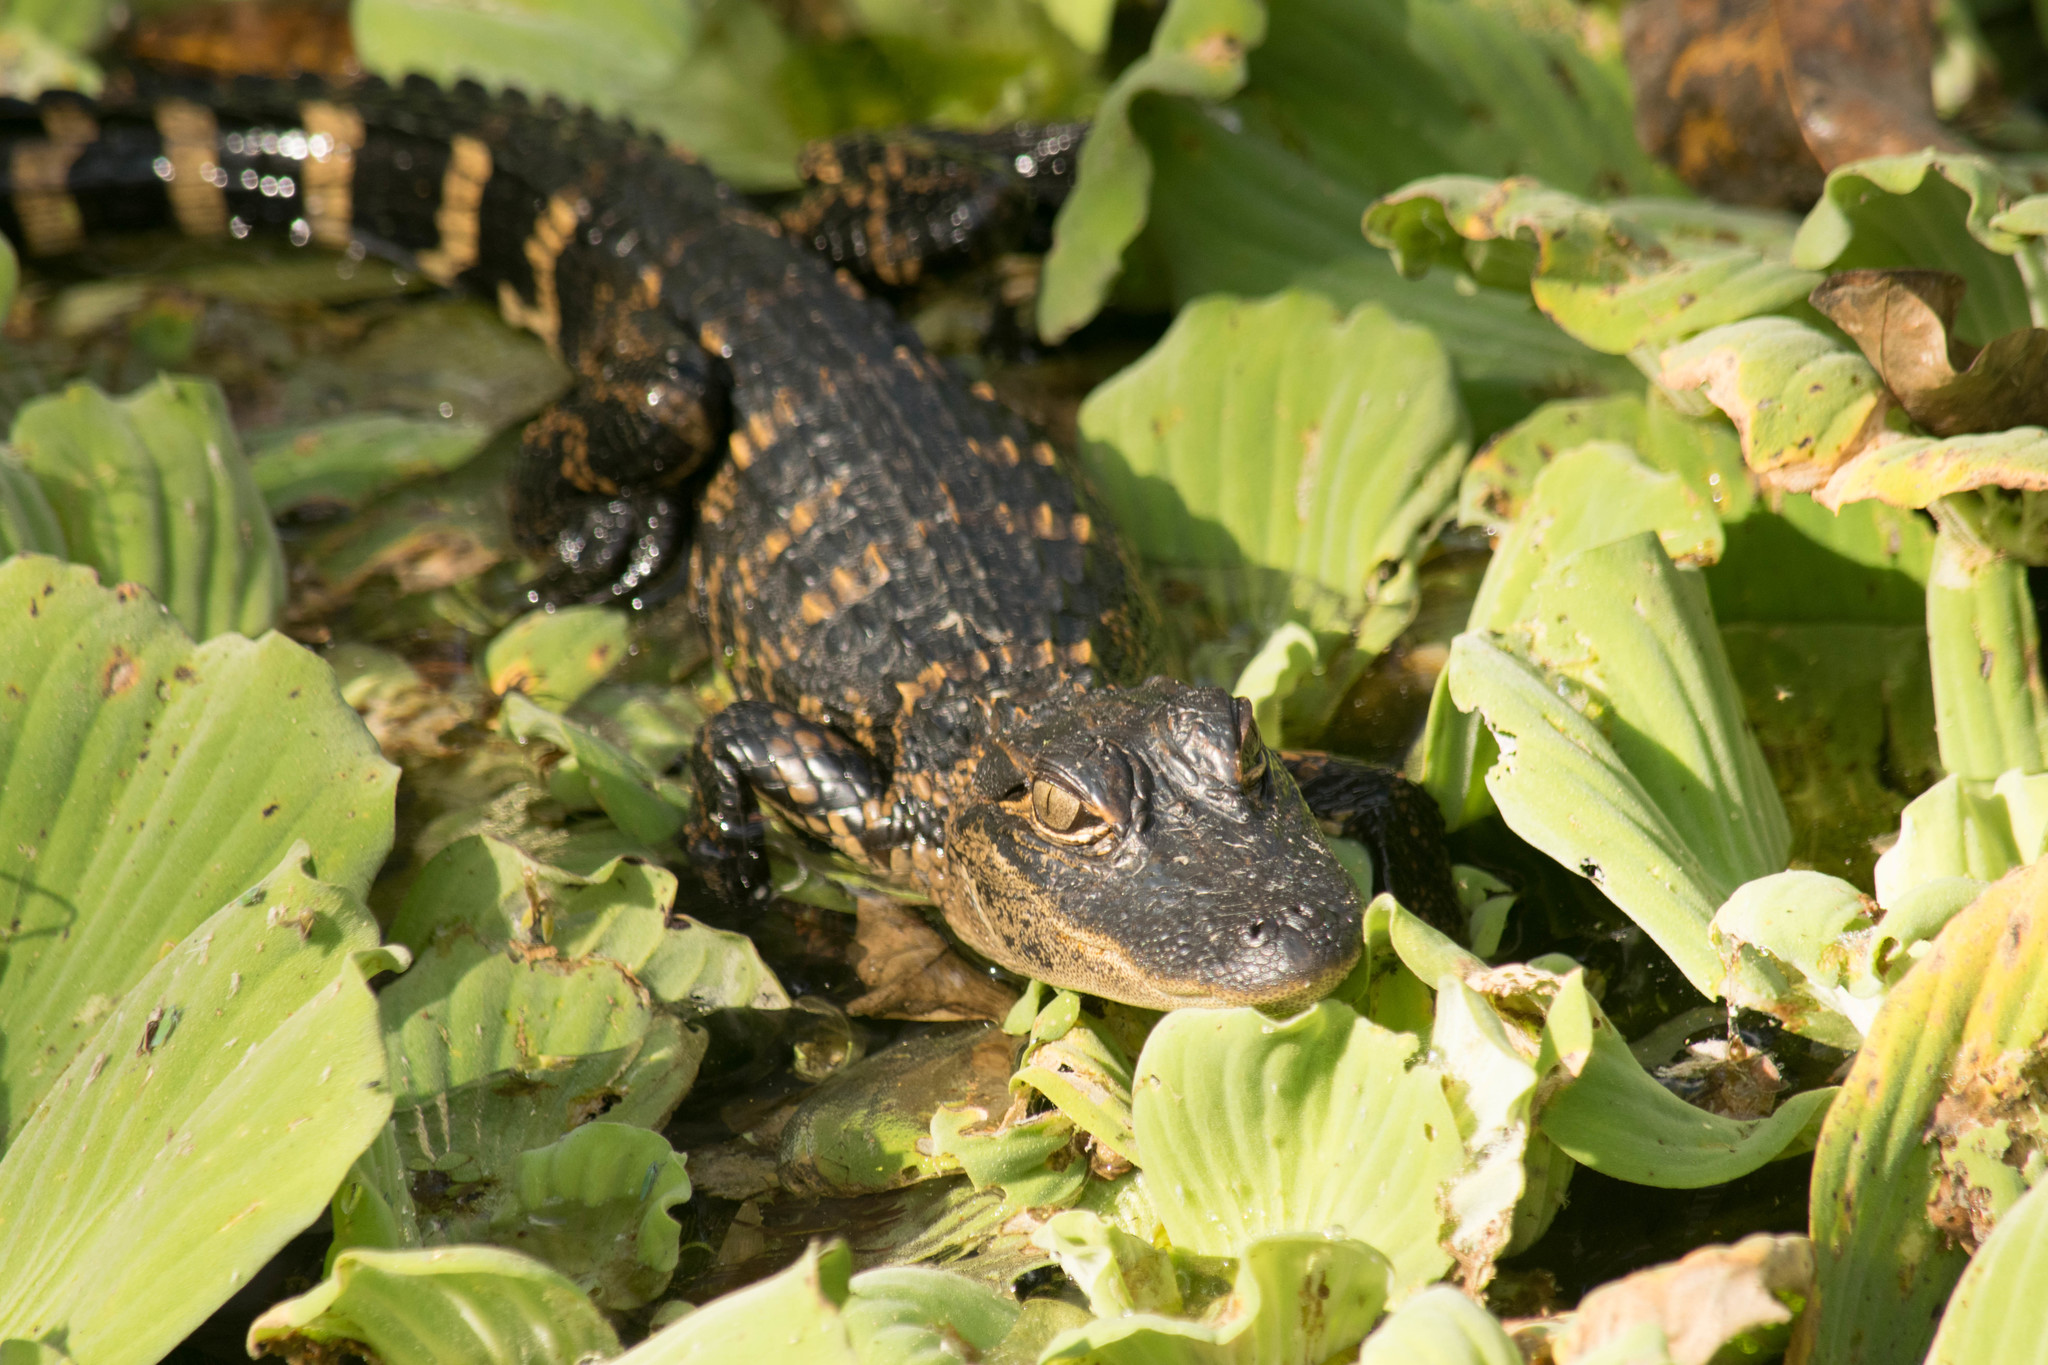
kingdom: Animalia
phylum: Chordata
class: Crocodylia
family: Alligatoridae
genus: Alligator
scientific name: Alligator mississippiensis
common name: American alligator
